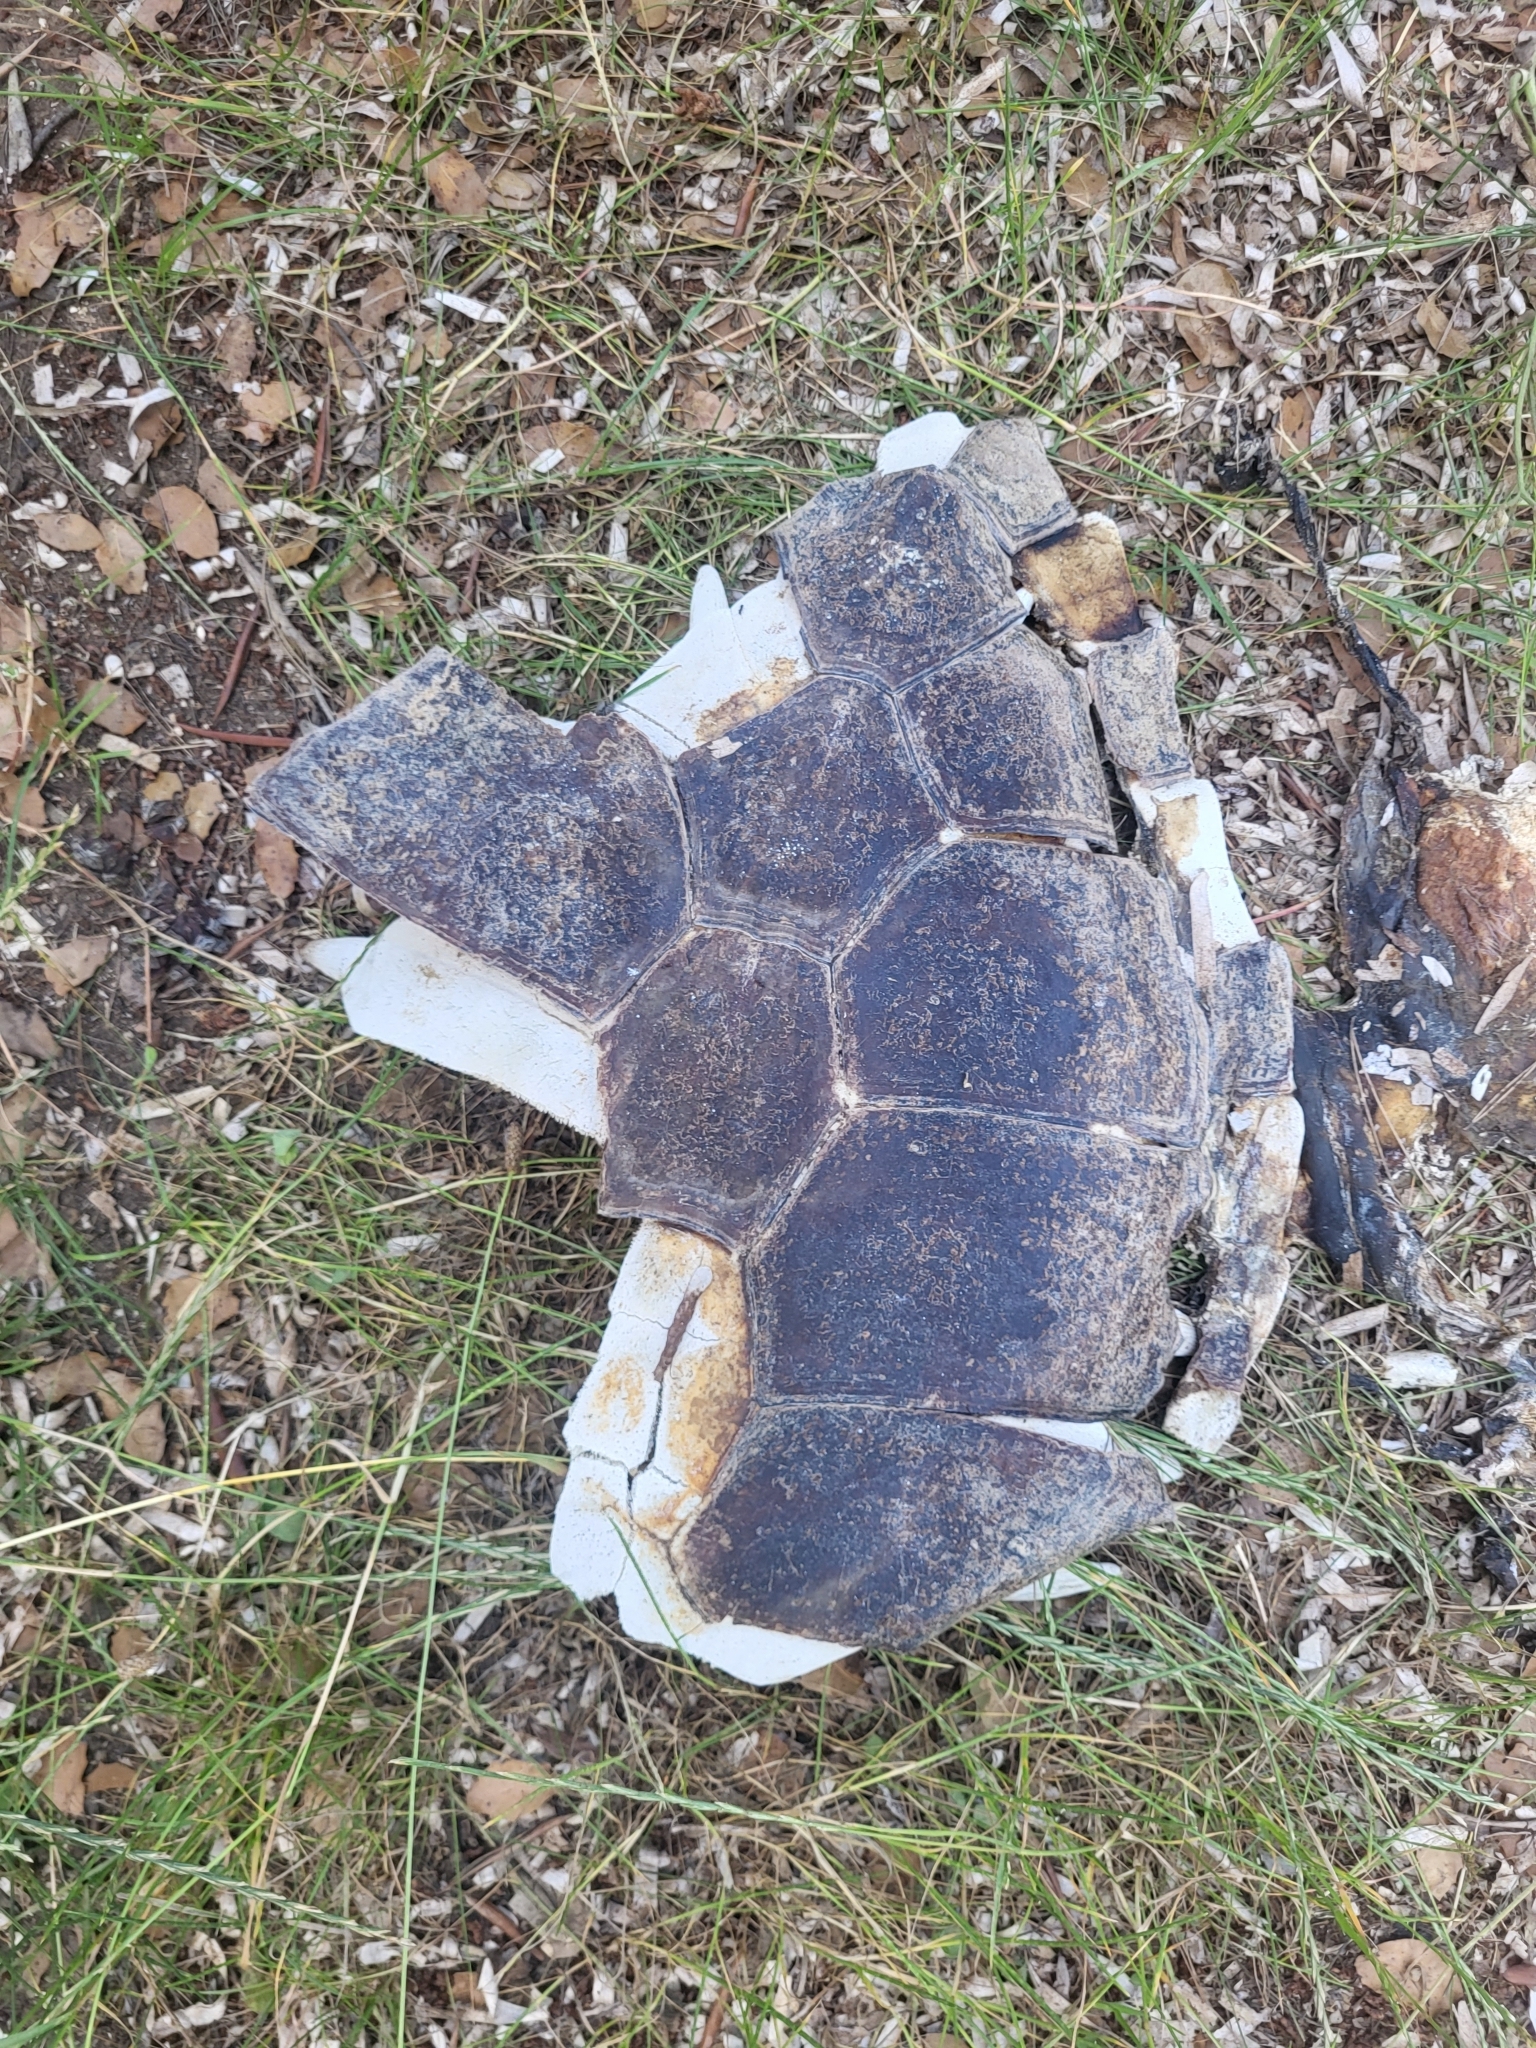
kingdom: Animalia
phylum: Chordata
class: Testudines
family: Cheloniidae
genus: Caretta
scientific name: Caretta caretta
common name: Loggerhead sea turtle
